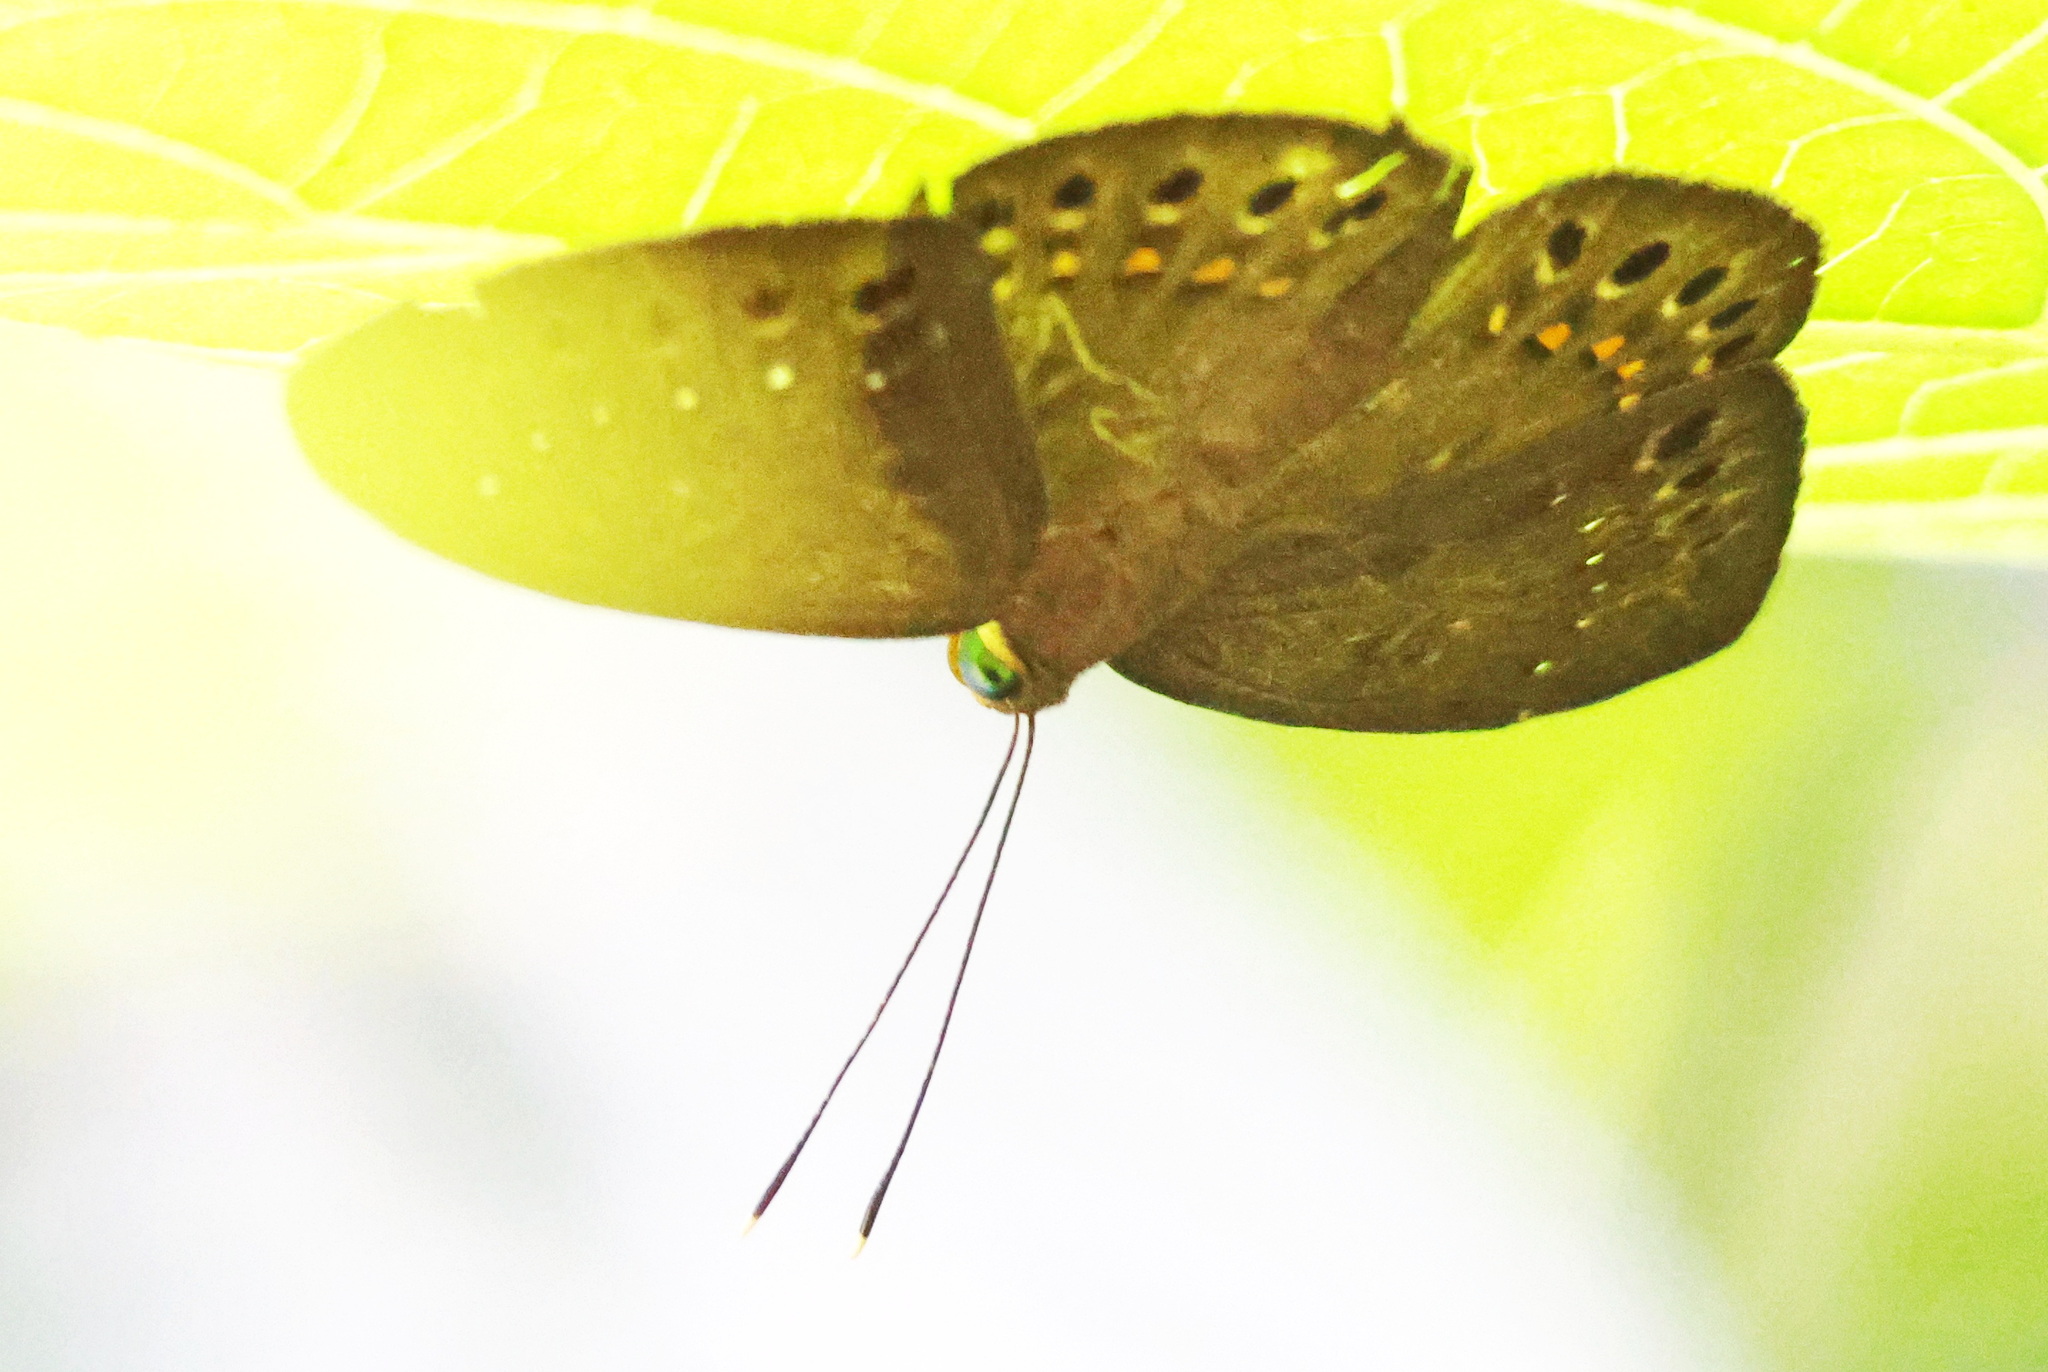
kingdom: Animalia
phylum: Cnidaria
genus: Eurybia
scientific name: Eurybia elvina
